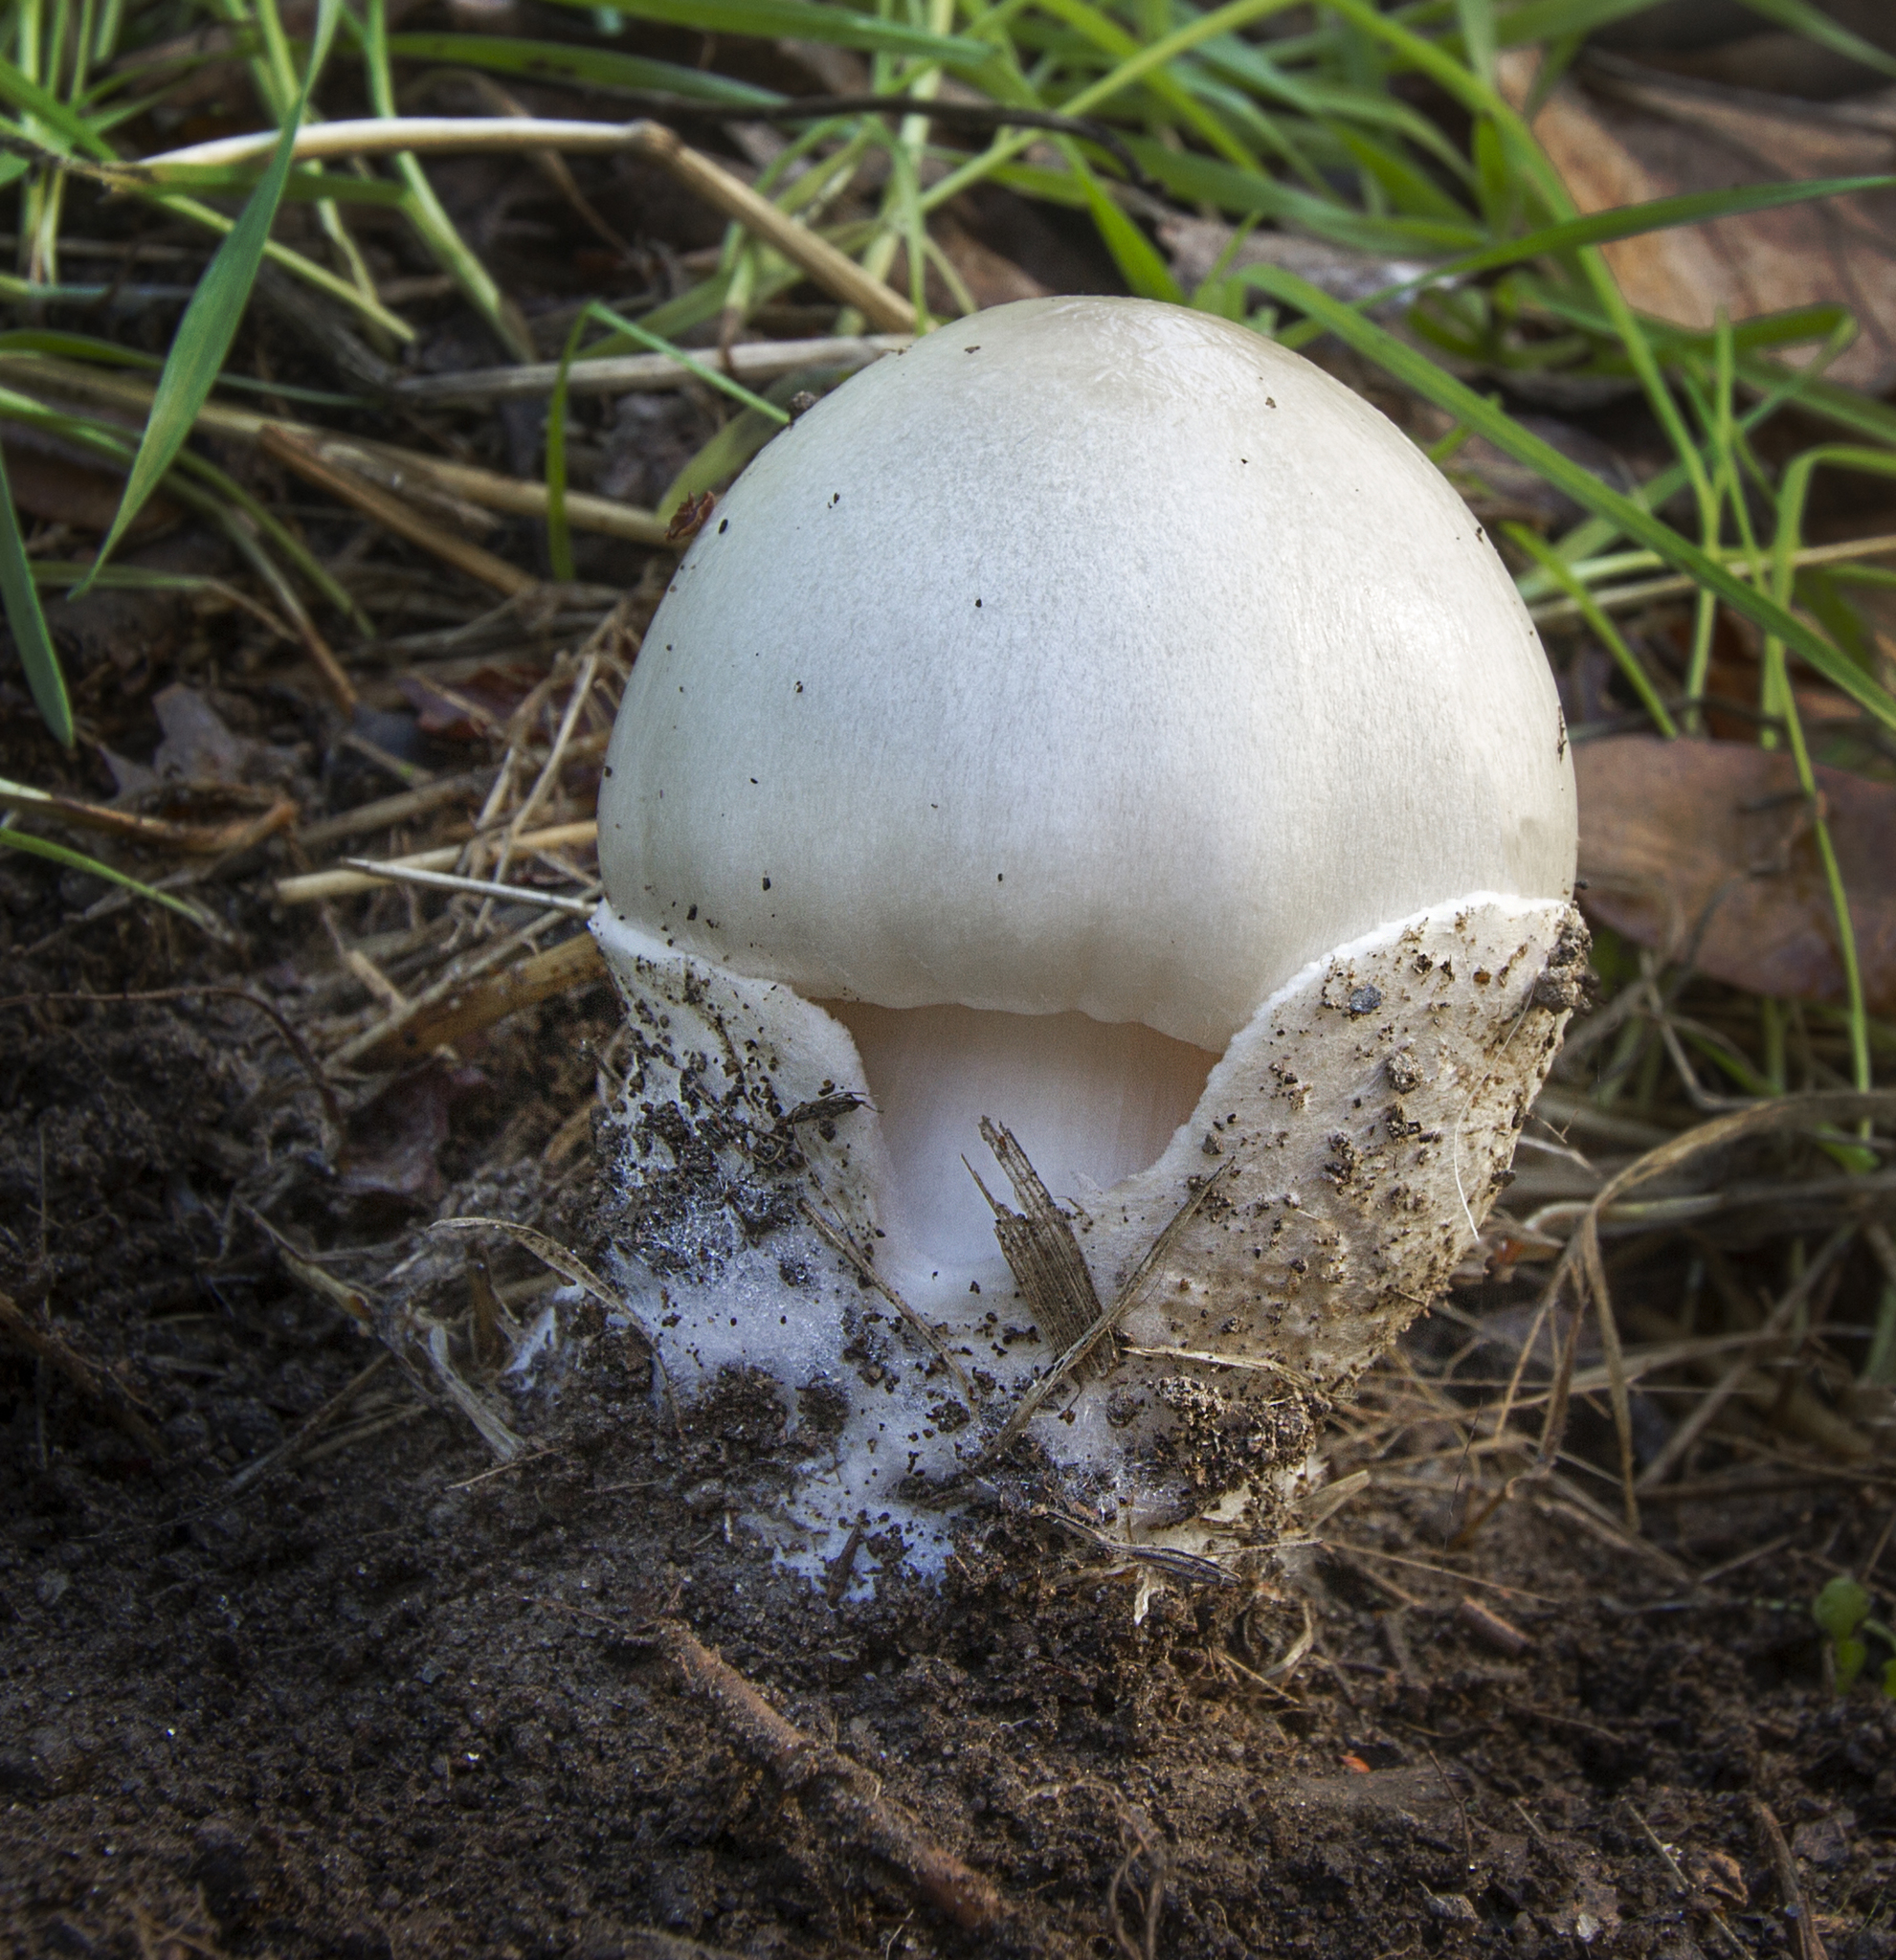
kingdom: Fungi
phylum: Basidiomycota
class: Agaricomycetes
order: Agaricales
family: Pluteaceae
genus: Volvopluteus
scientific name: Volvopluteus gloiocephalus
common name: Stubble rosegill
